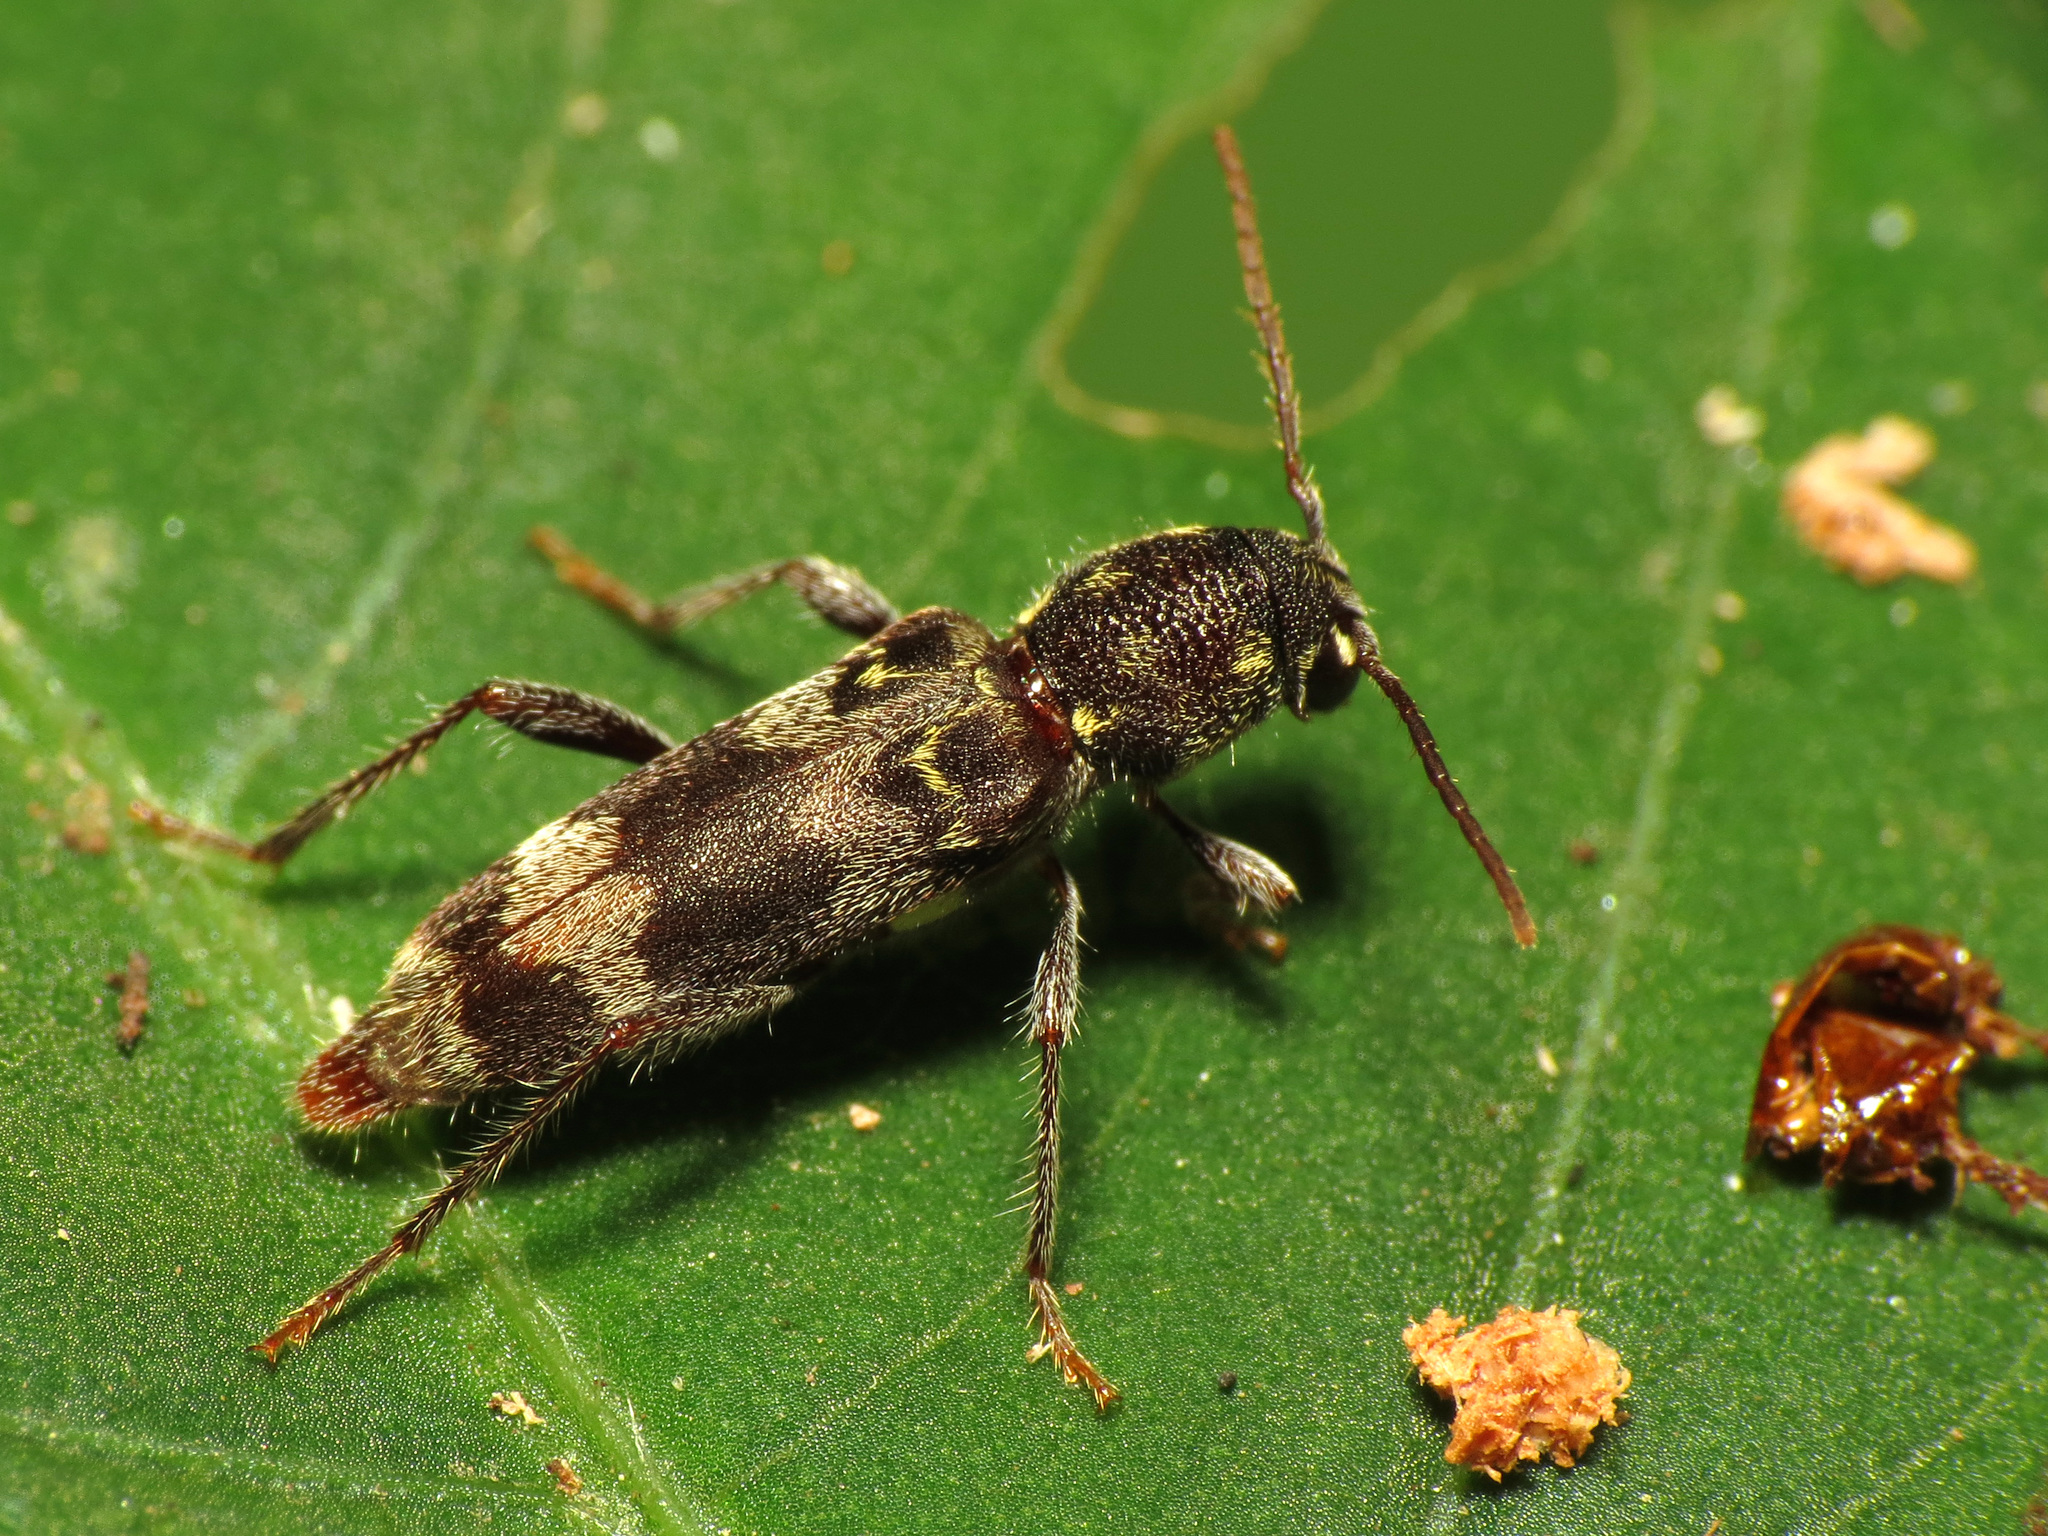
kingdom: Animalia
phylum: Arthropoda
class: Insecta
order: Coleoptera
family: Cerambycidae
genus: Xylotrechus
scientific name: Xylotrechus colonus
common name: Long-horned beetle
